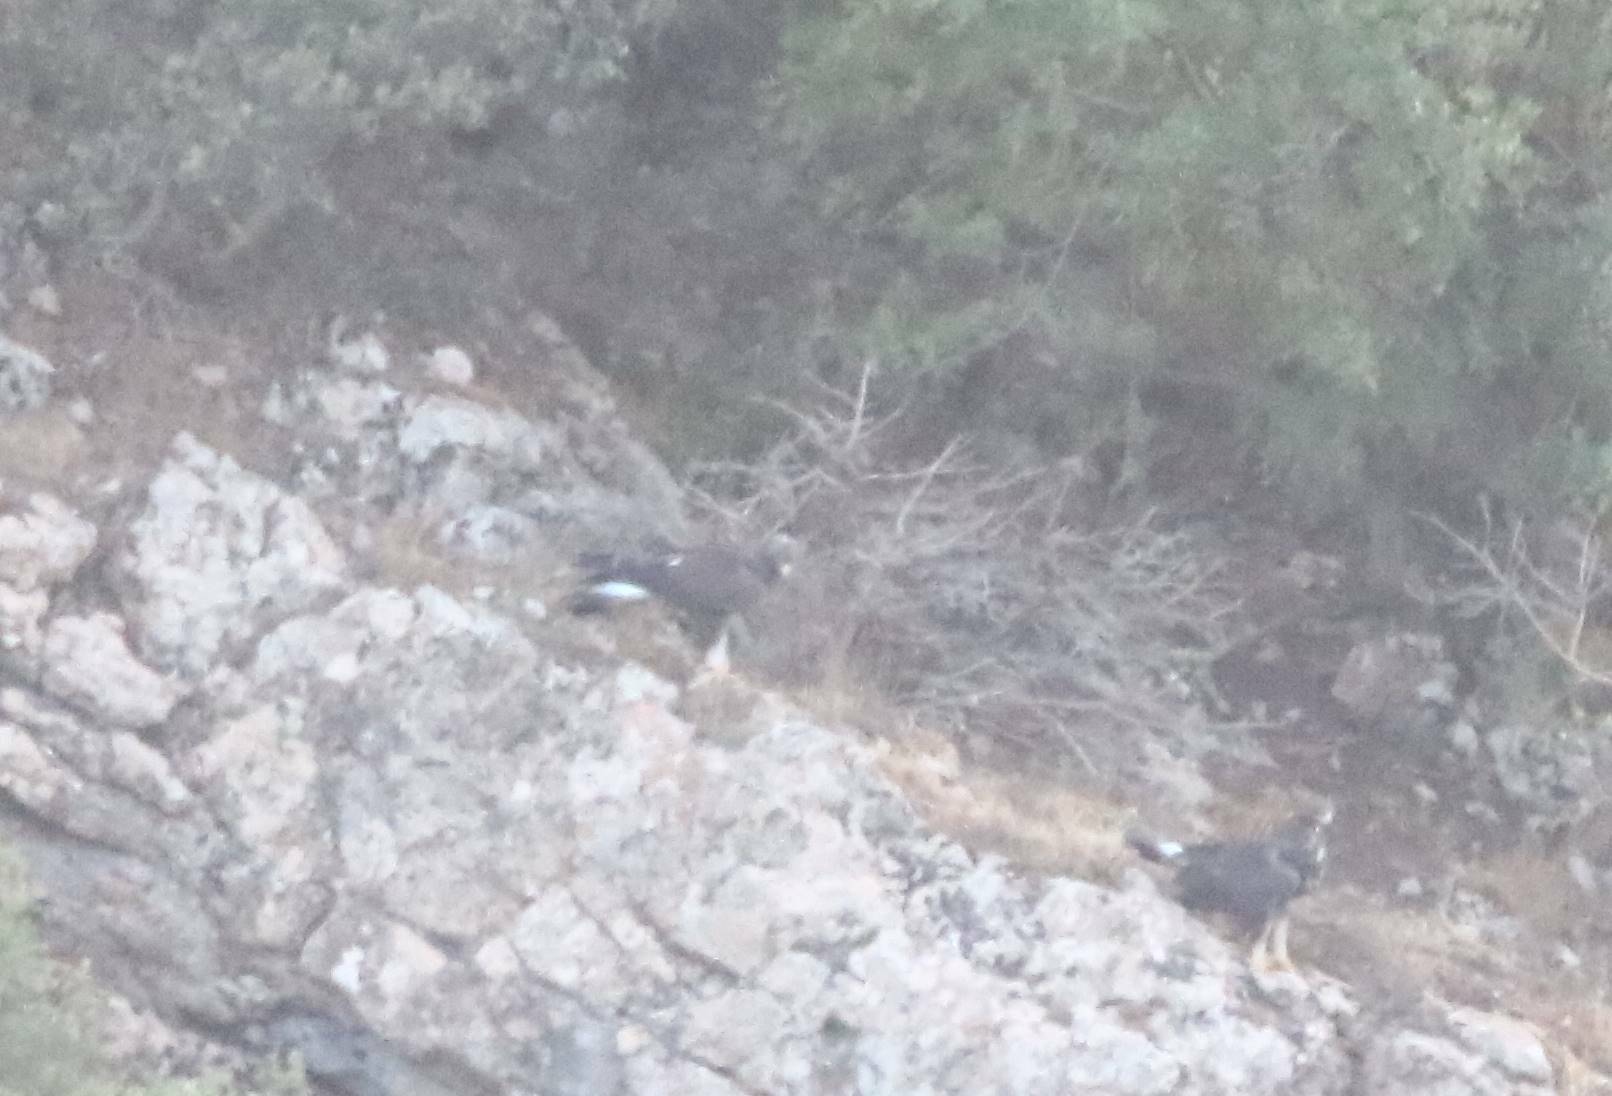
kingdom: Animalia
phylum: Chordata
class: Aves
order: Accipitriformes
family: Accipitridae
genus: Aquila
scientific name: Aquila chrysaetos
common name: Golden eagle
